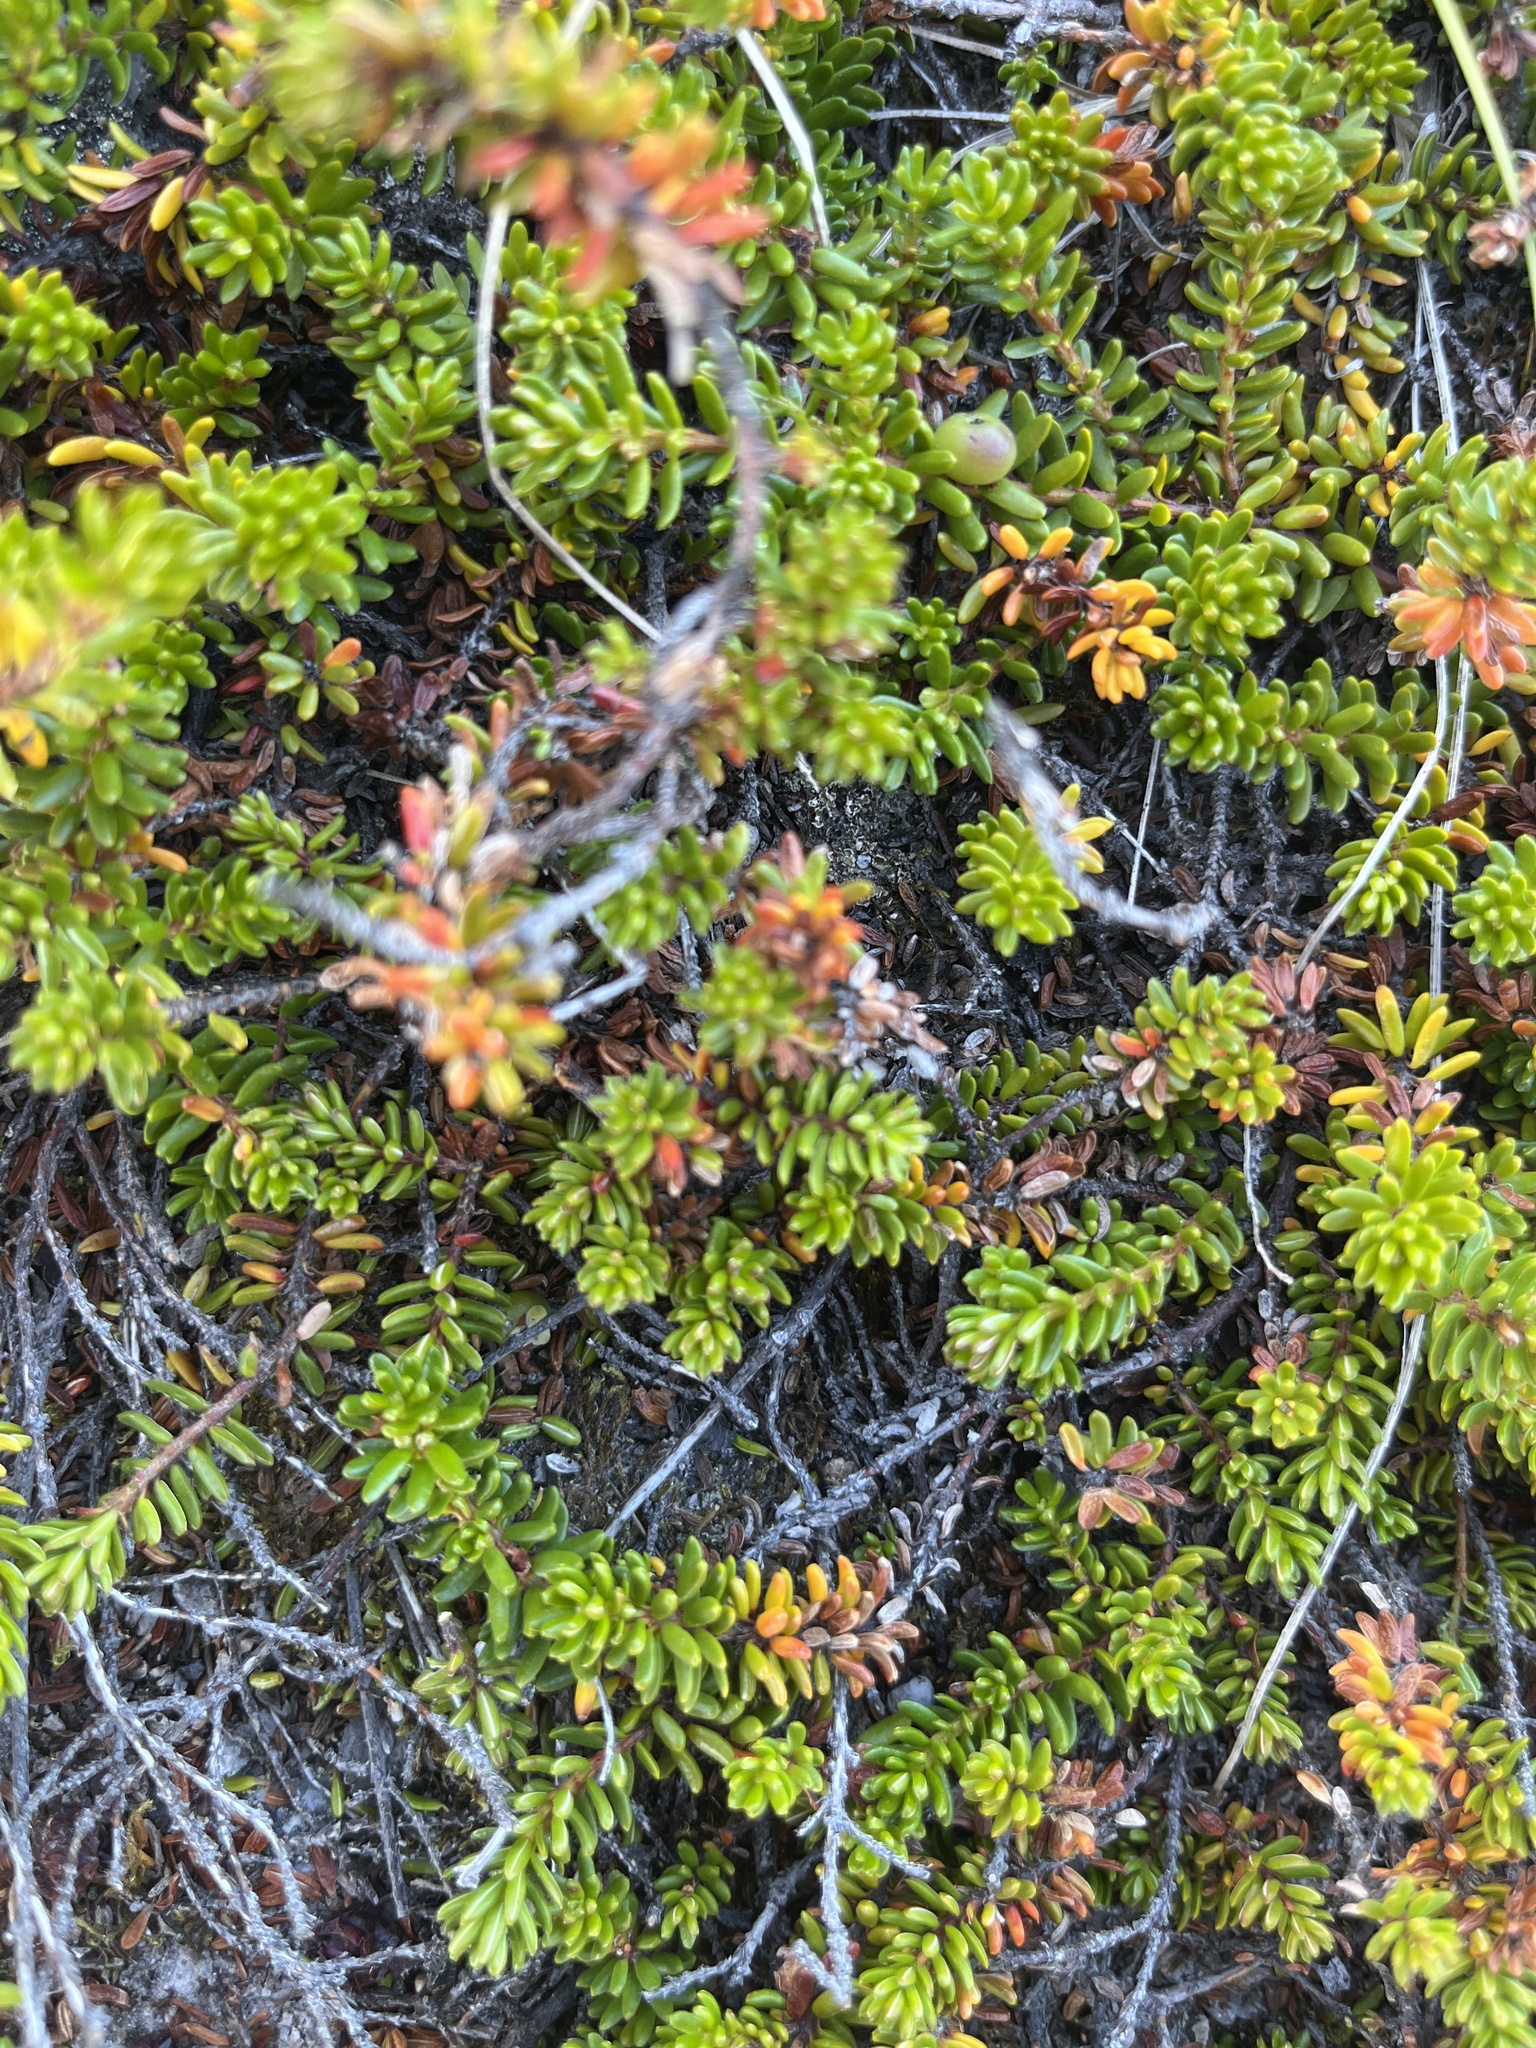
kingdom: Plantae
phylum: Tracheophyta
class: Magnoliopsida
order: Ericales
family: Ericaceae
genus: Empetrum
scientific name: Empetrum hermaphroditum
